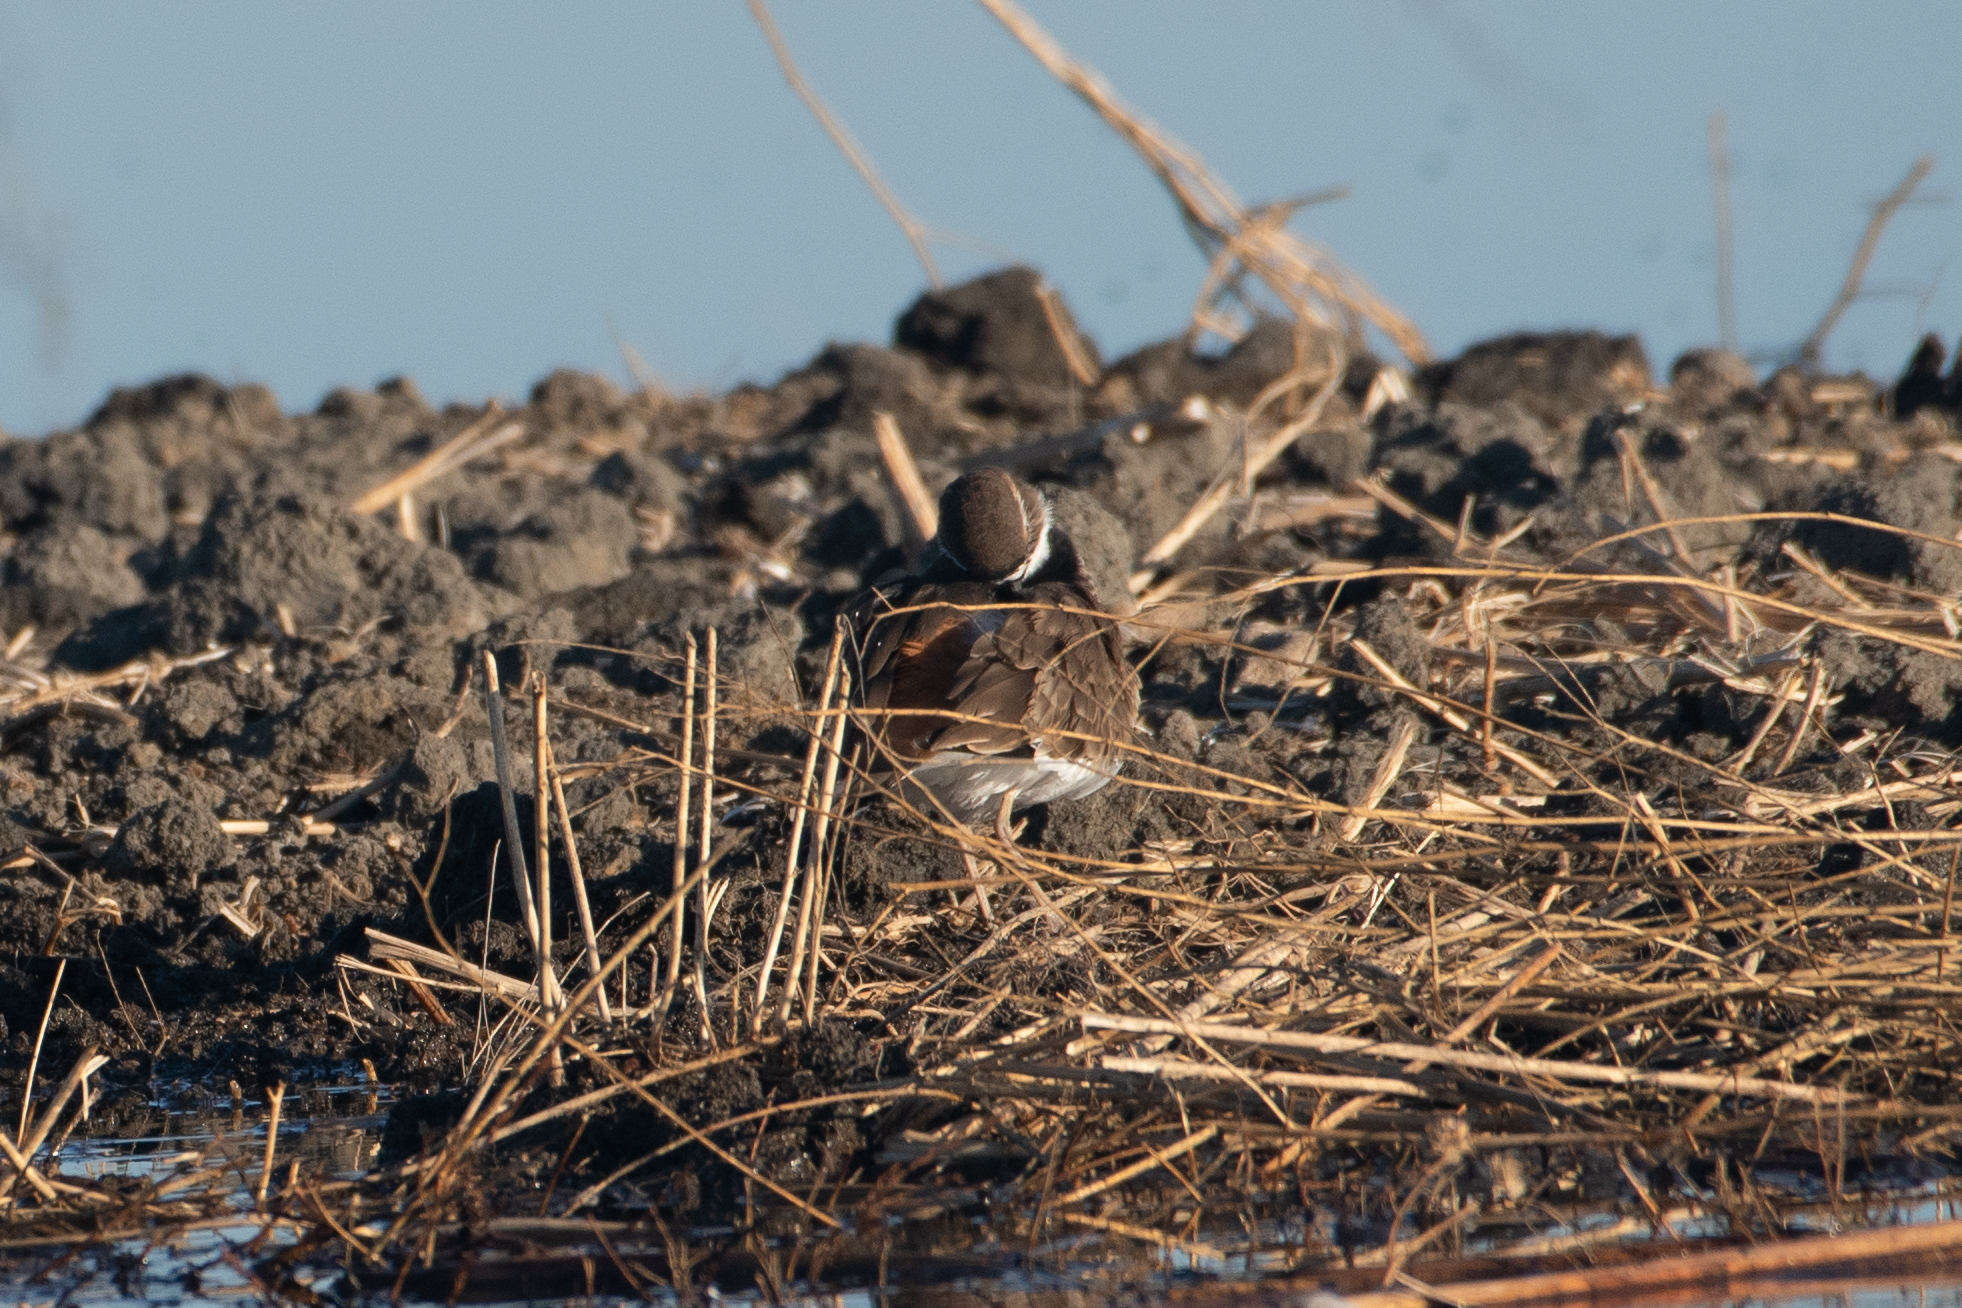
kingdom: Animalia
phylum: Chordata
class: Aves
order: Charadriiformes
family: Charadriidae
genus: Charadrius
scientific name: Charadrius vociferus
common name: Killdeer
